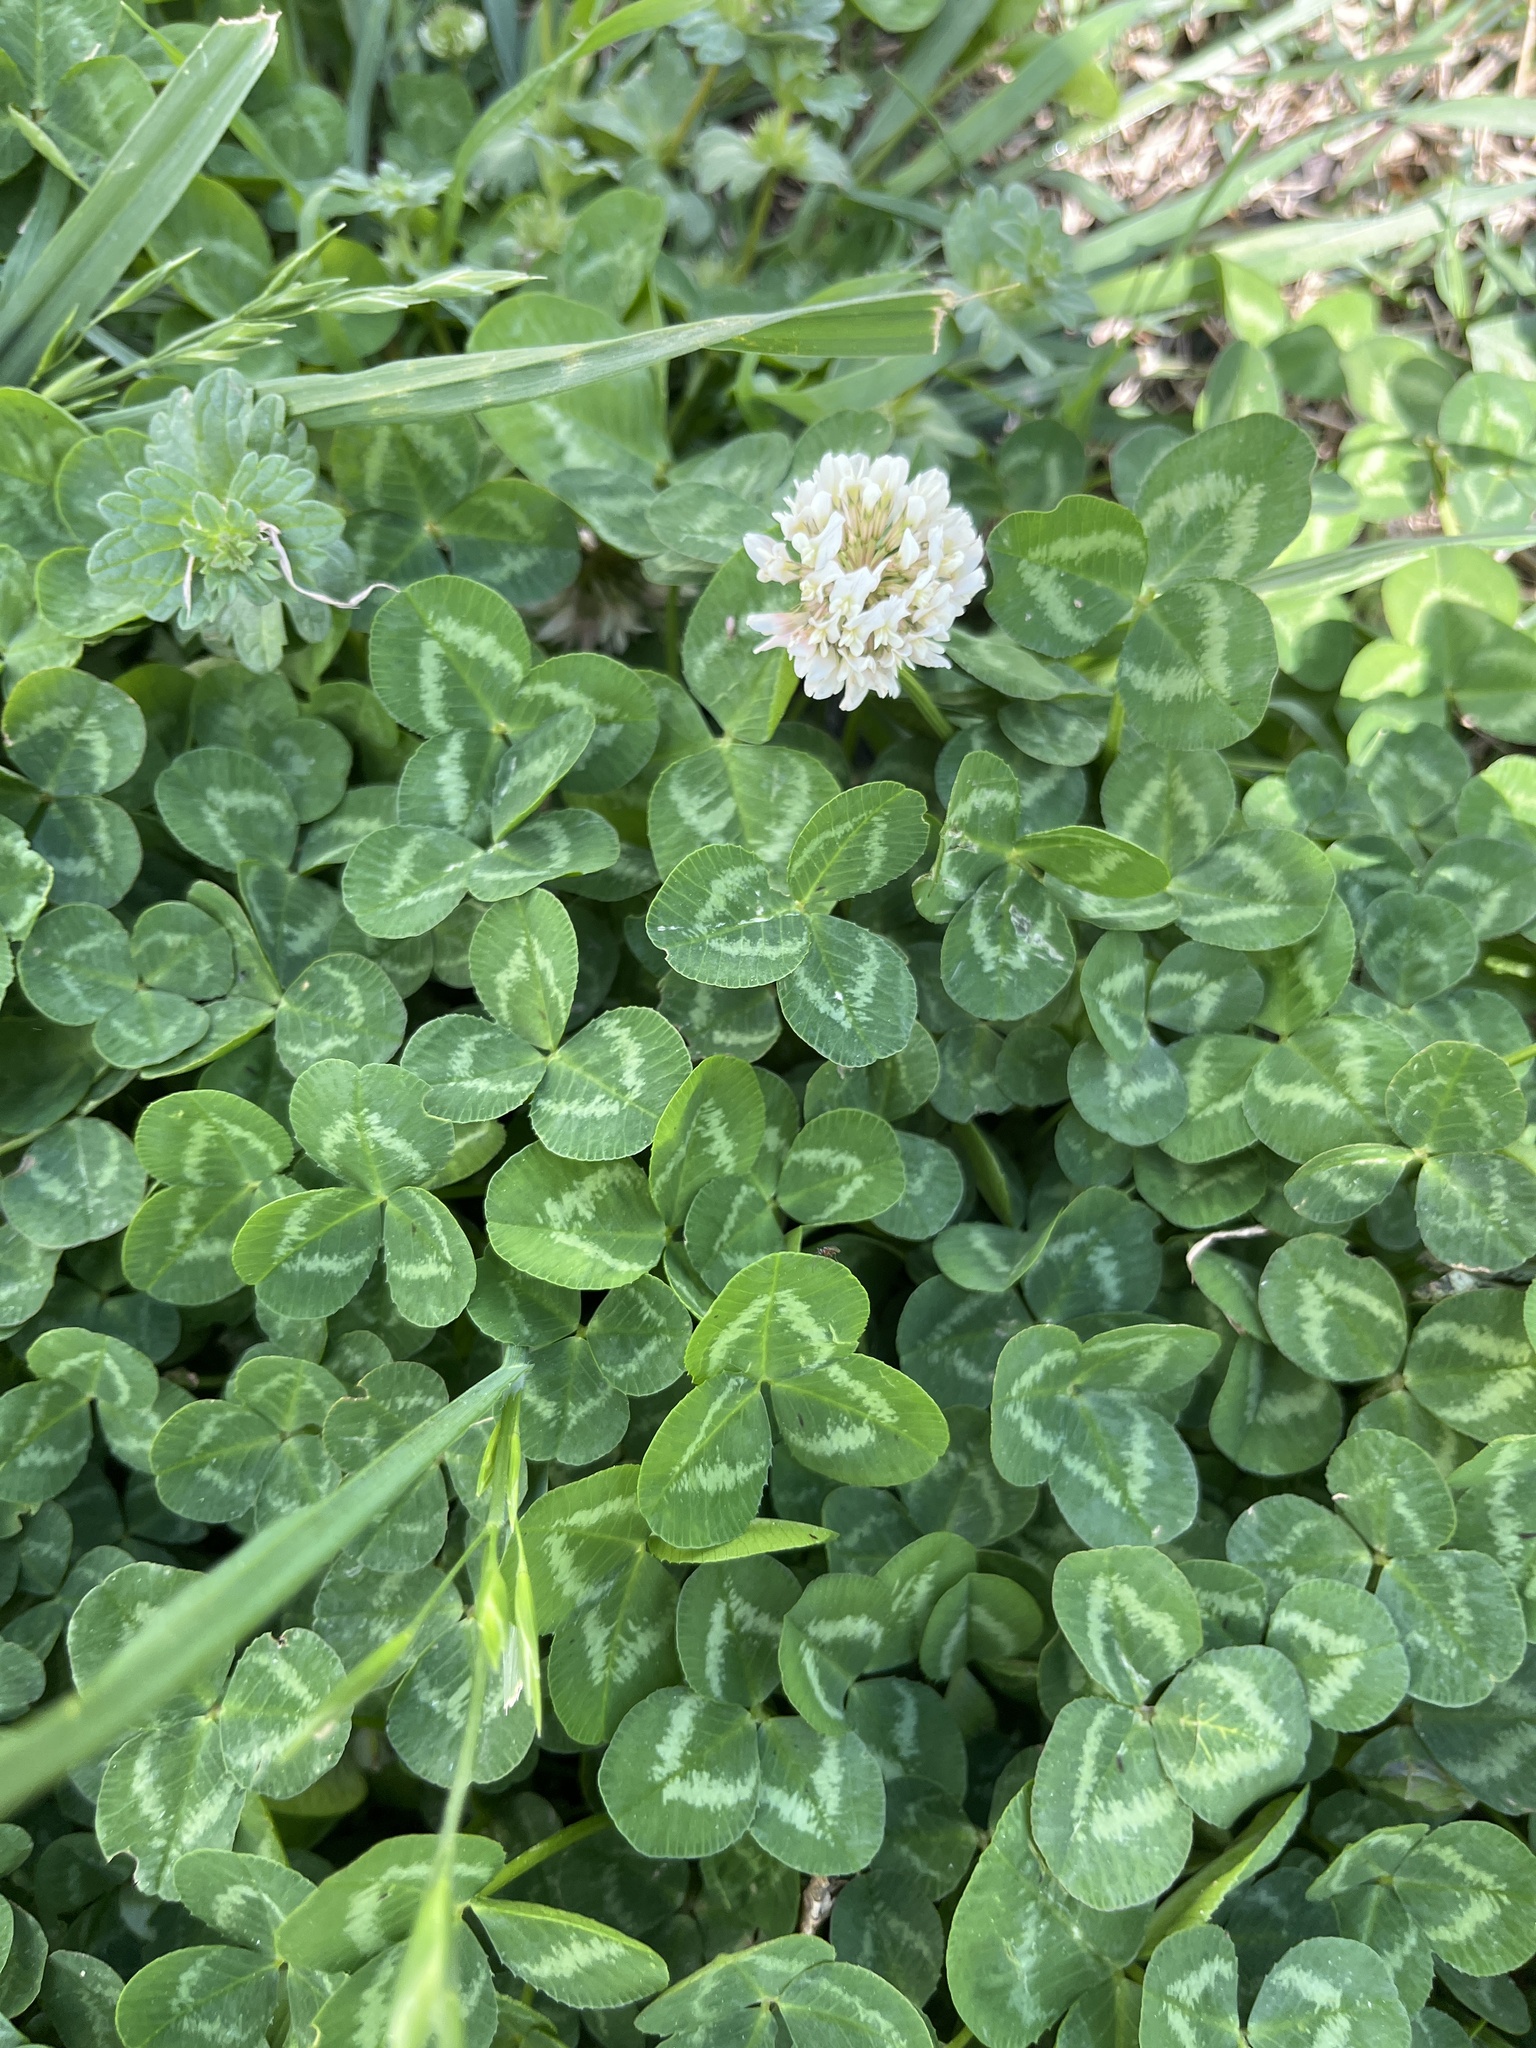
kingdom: Plantae
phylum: Tracheophyta
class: Magnoliopsida
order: Fabales
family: Fabaceae
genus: Trifolium
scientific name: Trifolium repens
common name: White clover
